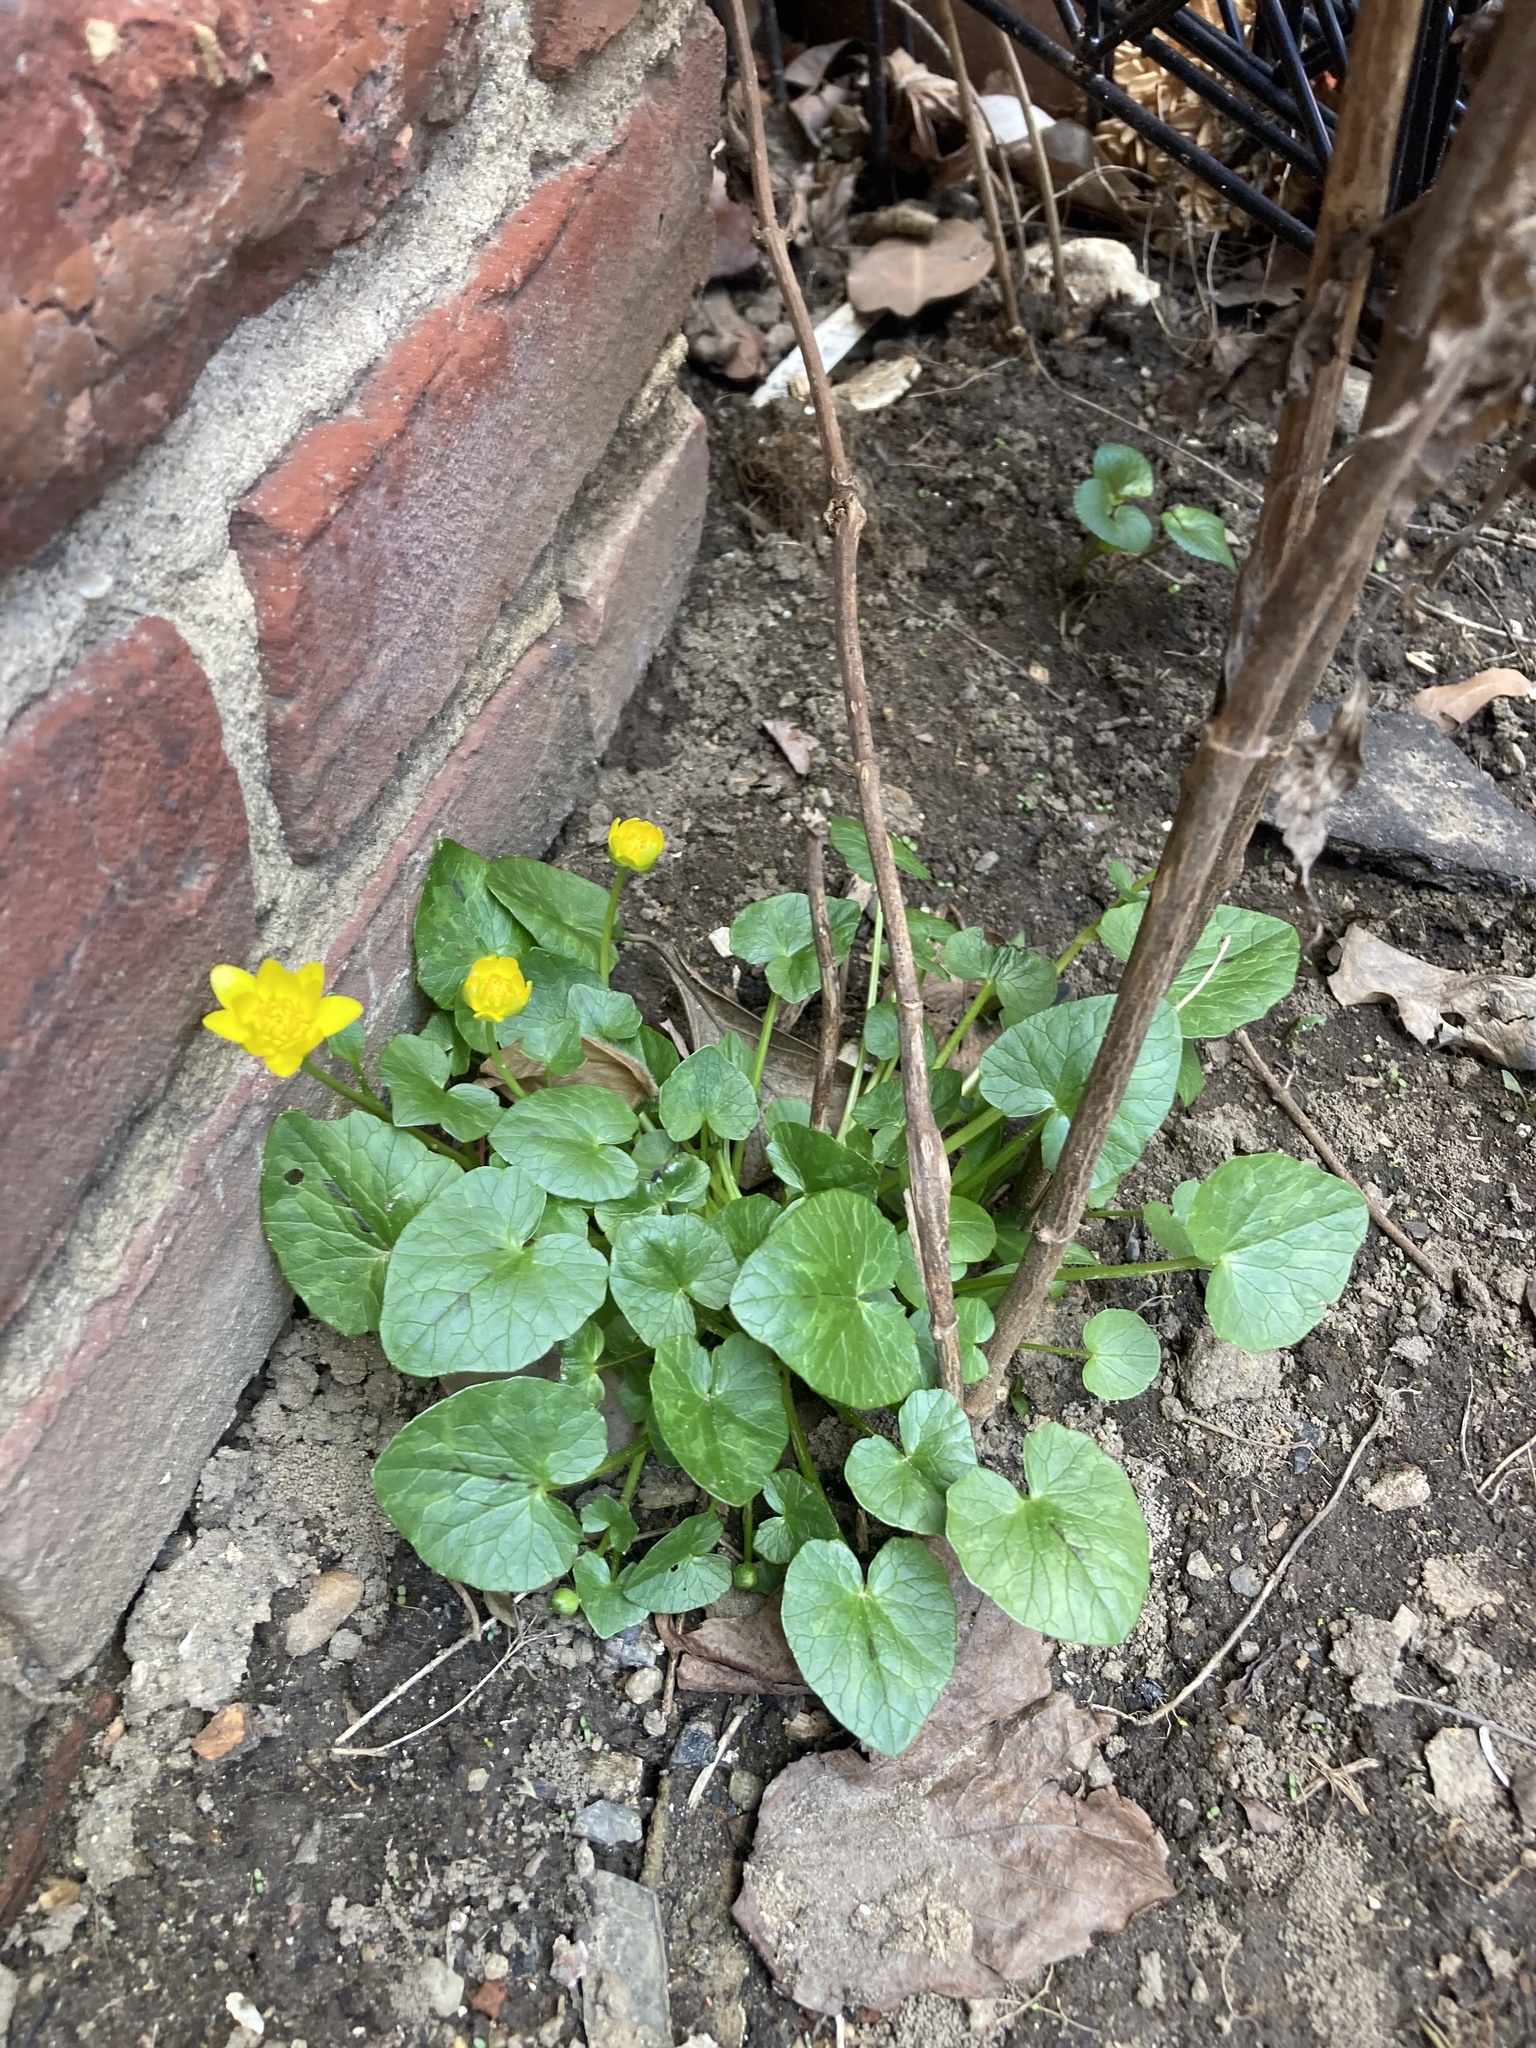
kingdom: Plantae
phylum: Tracheophyta
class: Magnoliopsida
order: Ranunculales
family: Ranunculaceae
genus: Ficaria
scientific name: Ficaria verna
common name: Lesser celandine
